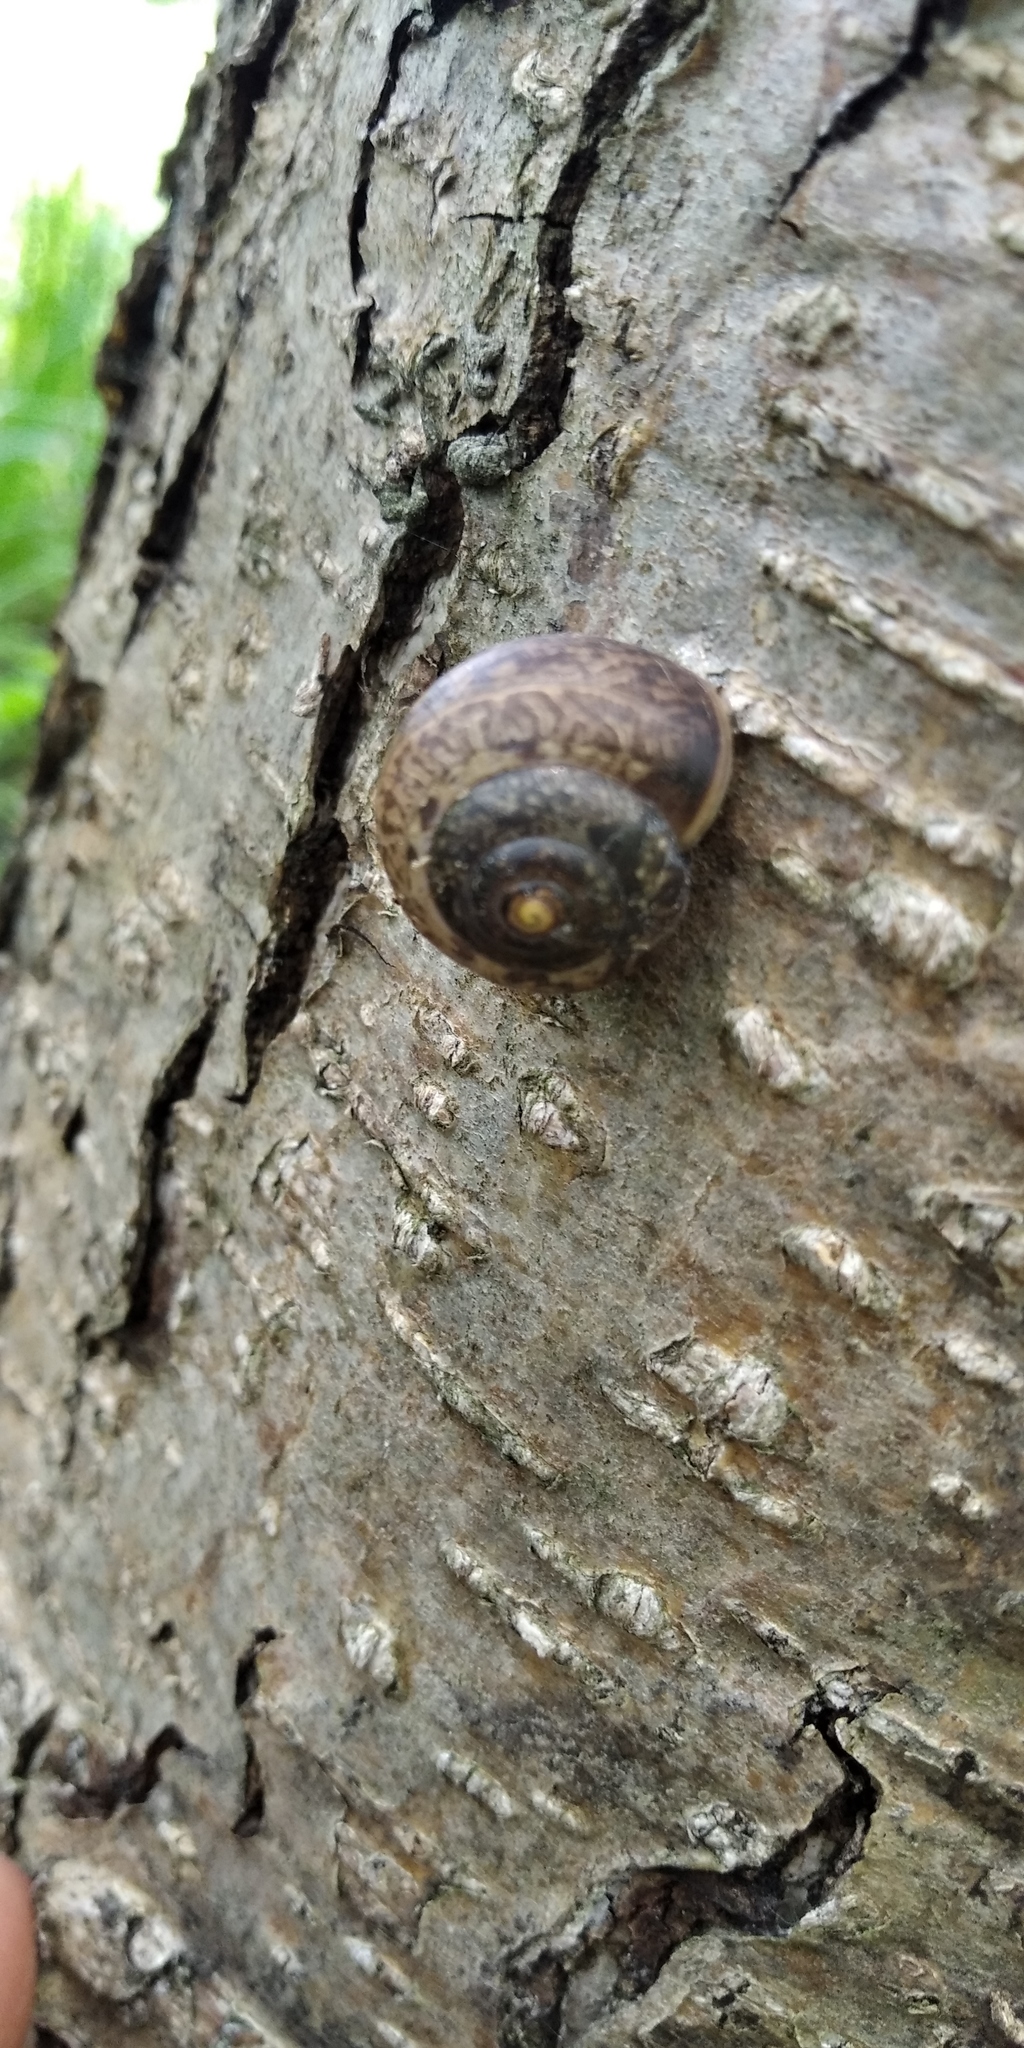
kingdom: Animalia
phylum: Mollusca
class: Gastropoda
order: Stylommatophora
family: Camaenidae
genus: Fruticicola
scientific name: Fruticicola fruticum
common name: Bush snail
